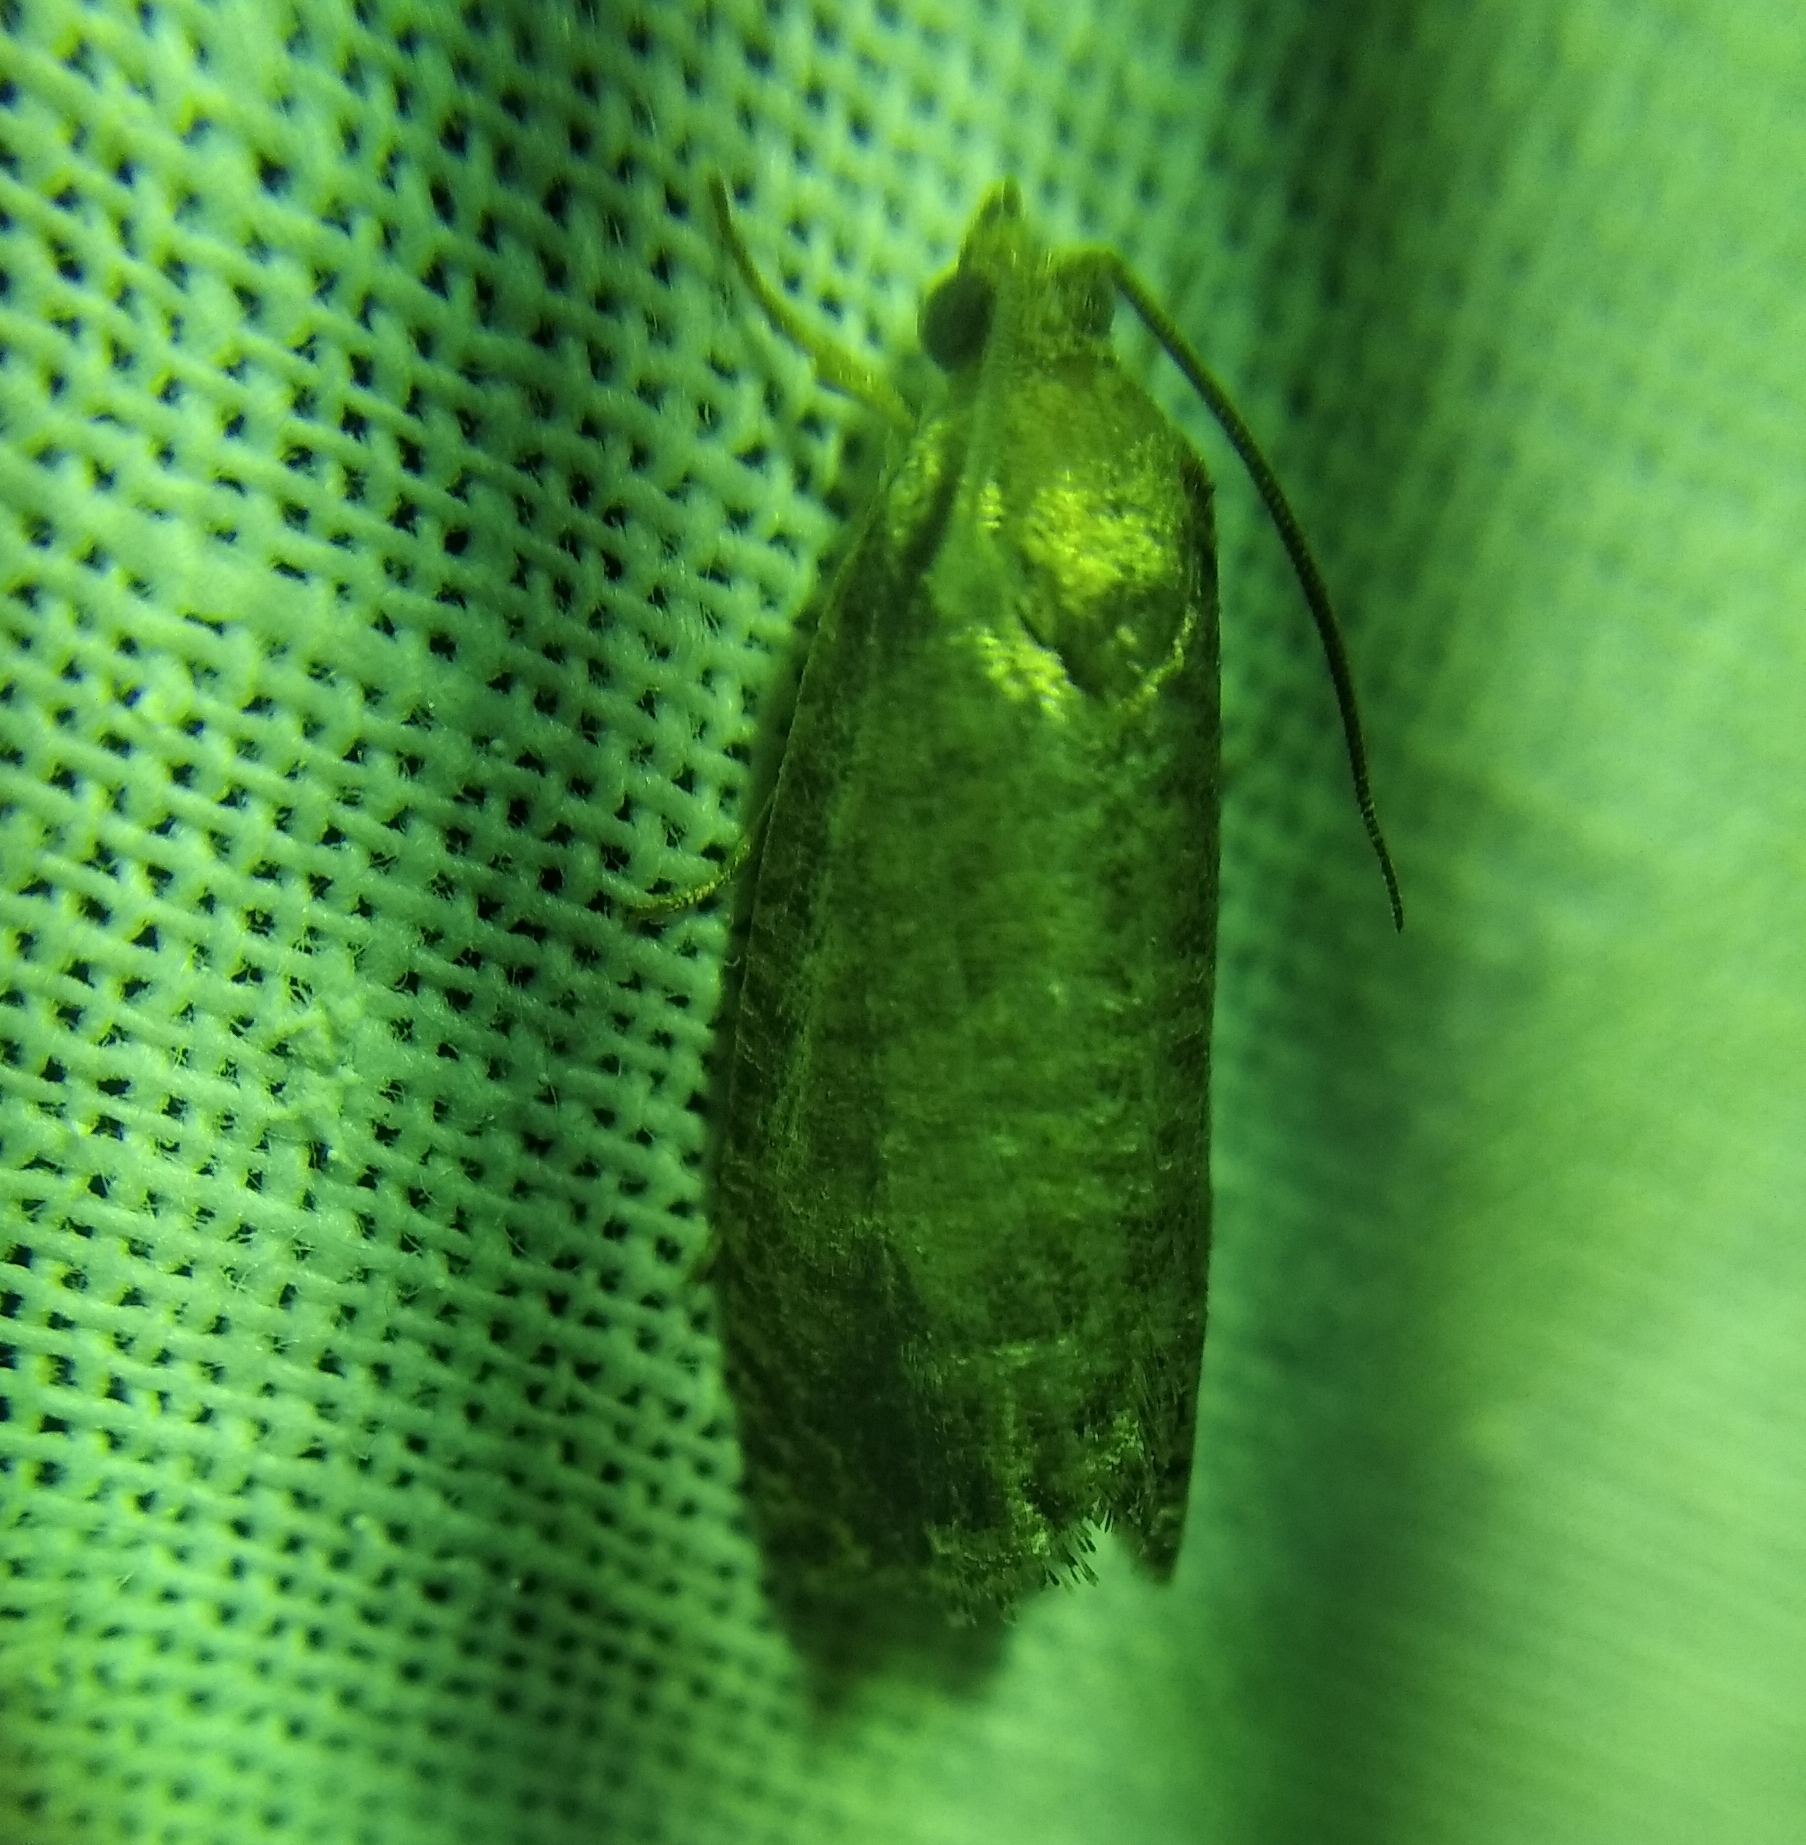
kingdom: Animalia
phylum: Arthropoda
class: Insecta
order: Lepidoptera
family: Tortricidae
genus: Cydia
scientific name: Cydia pomonella
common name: Codling moth
